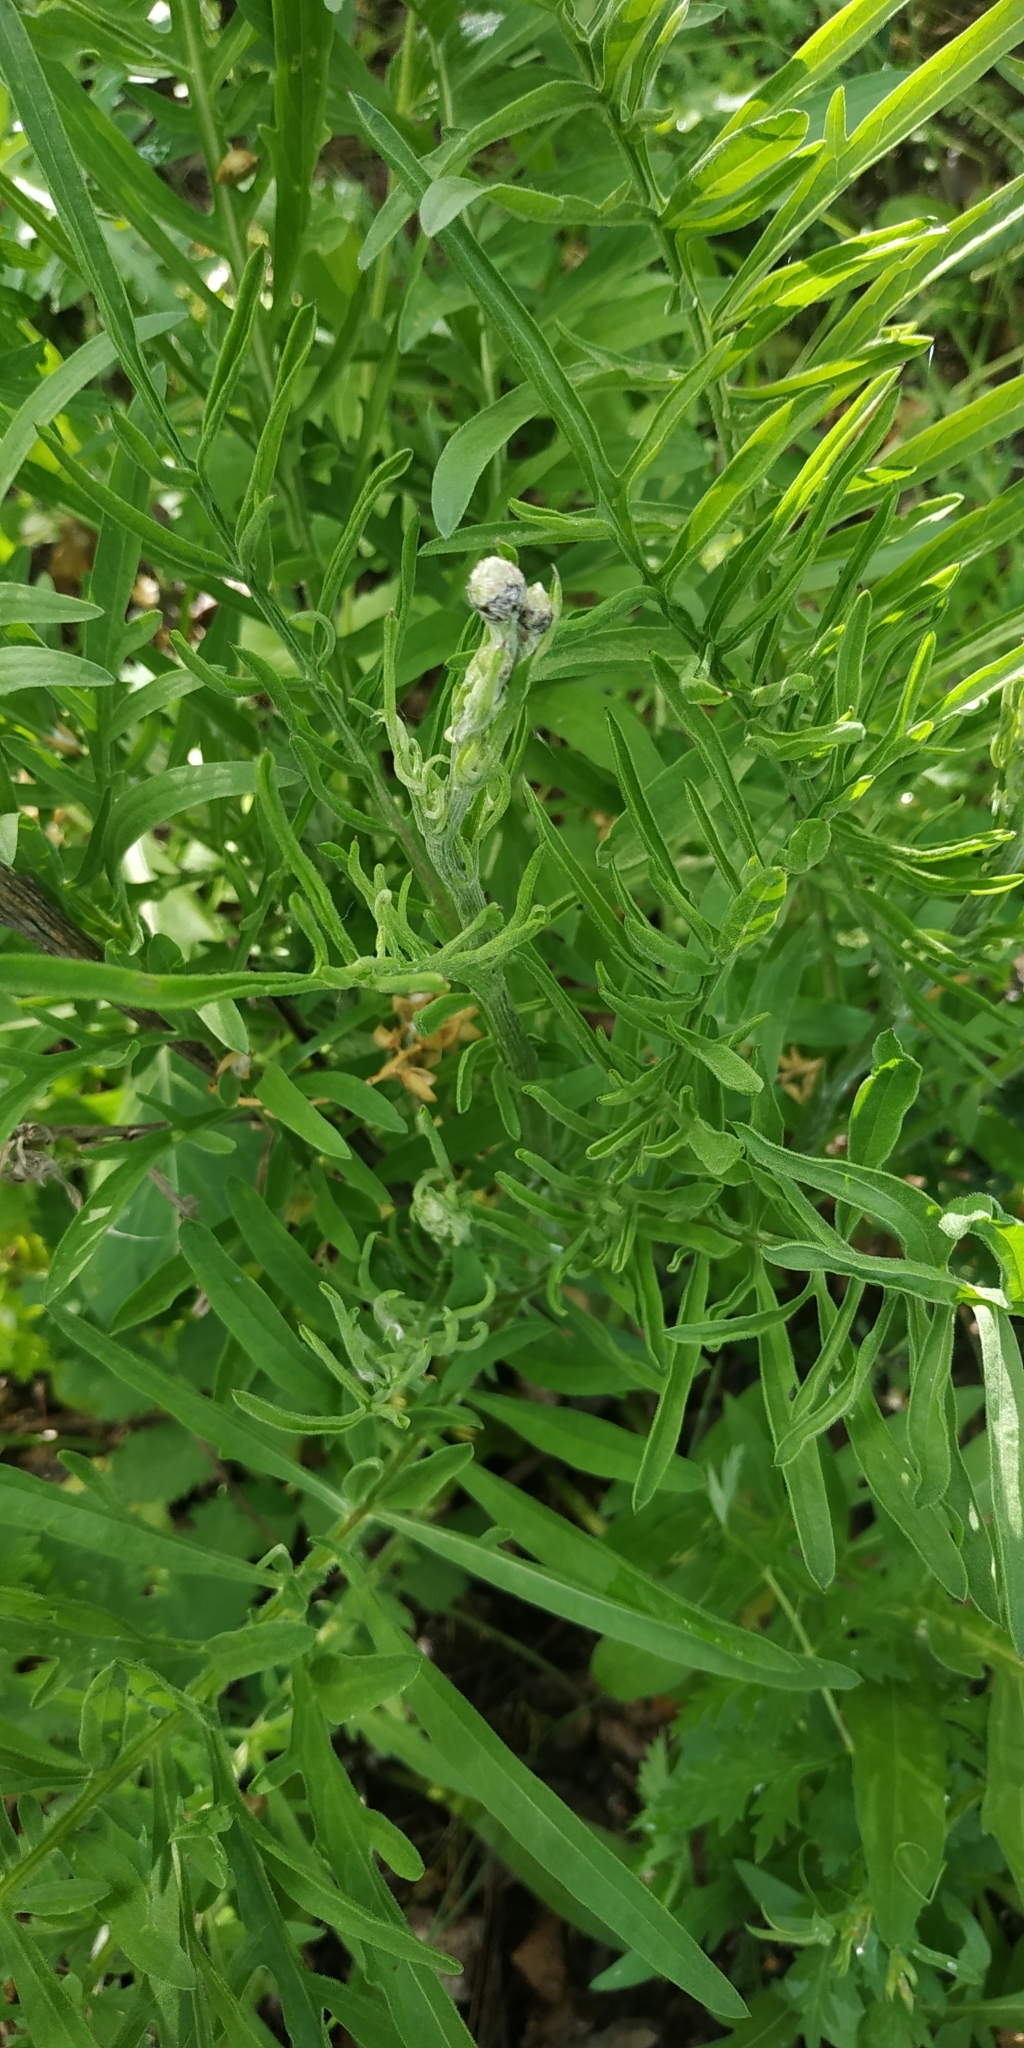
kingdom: Plantae
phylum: Tracheophyta
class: Magnoliopsida
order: Asterales
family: Asteraceae
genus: Centaurea
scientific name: Centaurea scabiosa
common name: Greater knapweed
